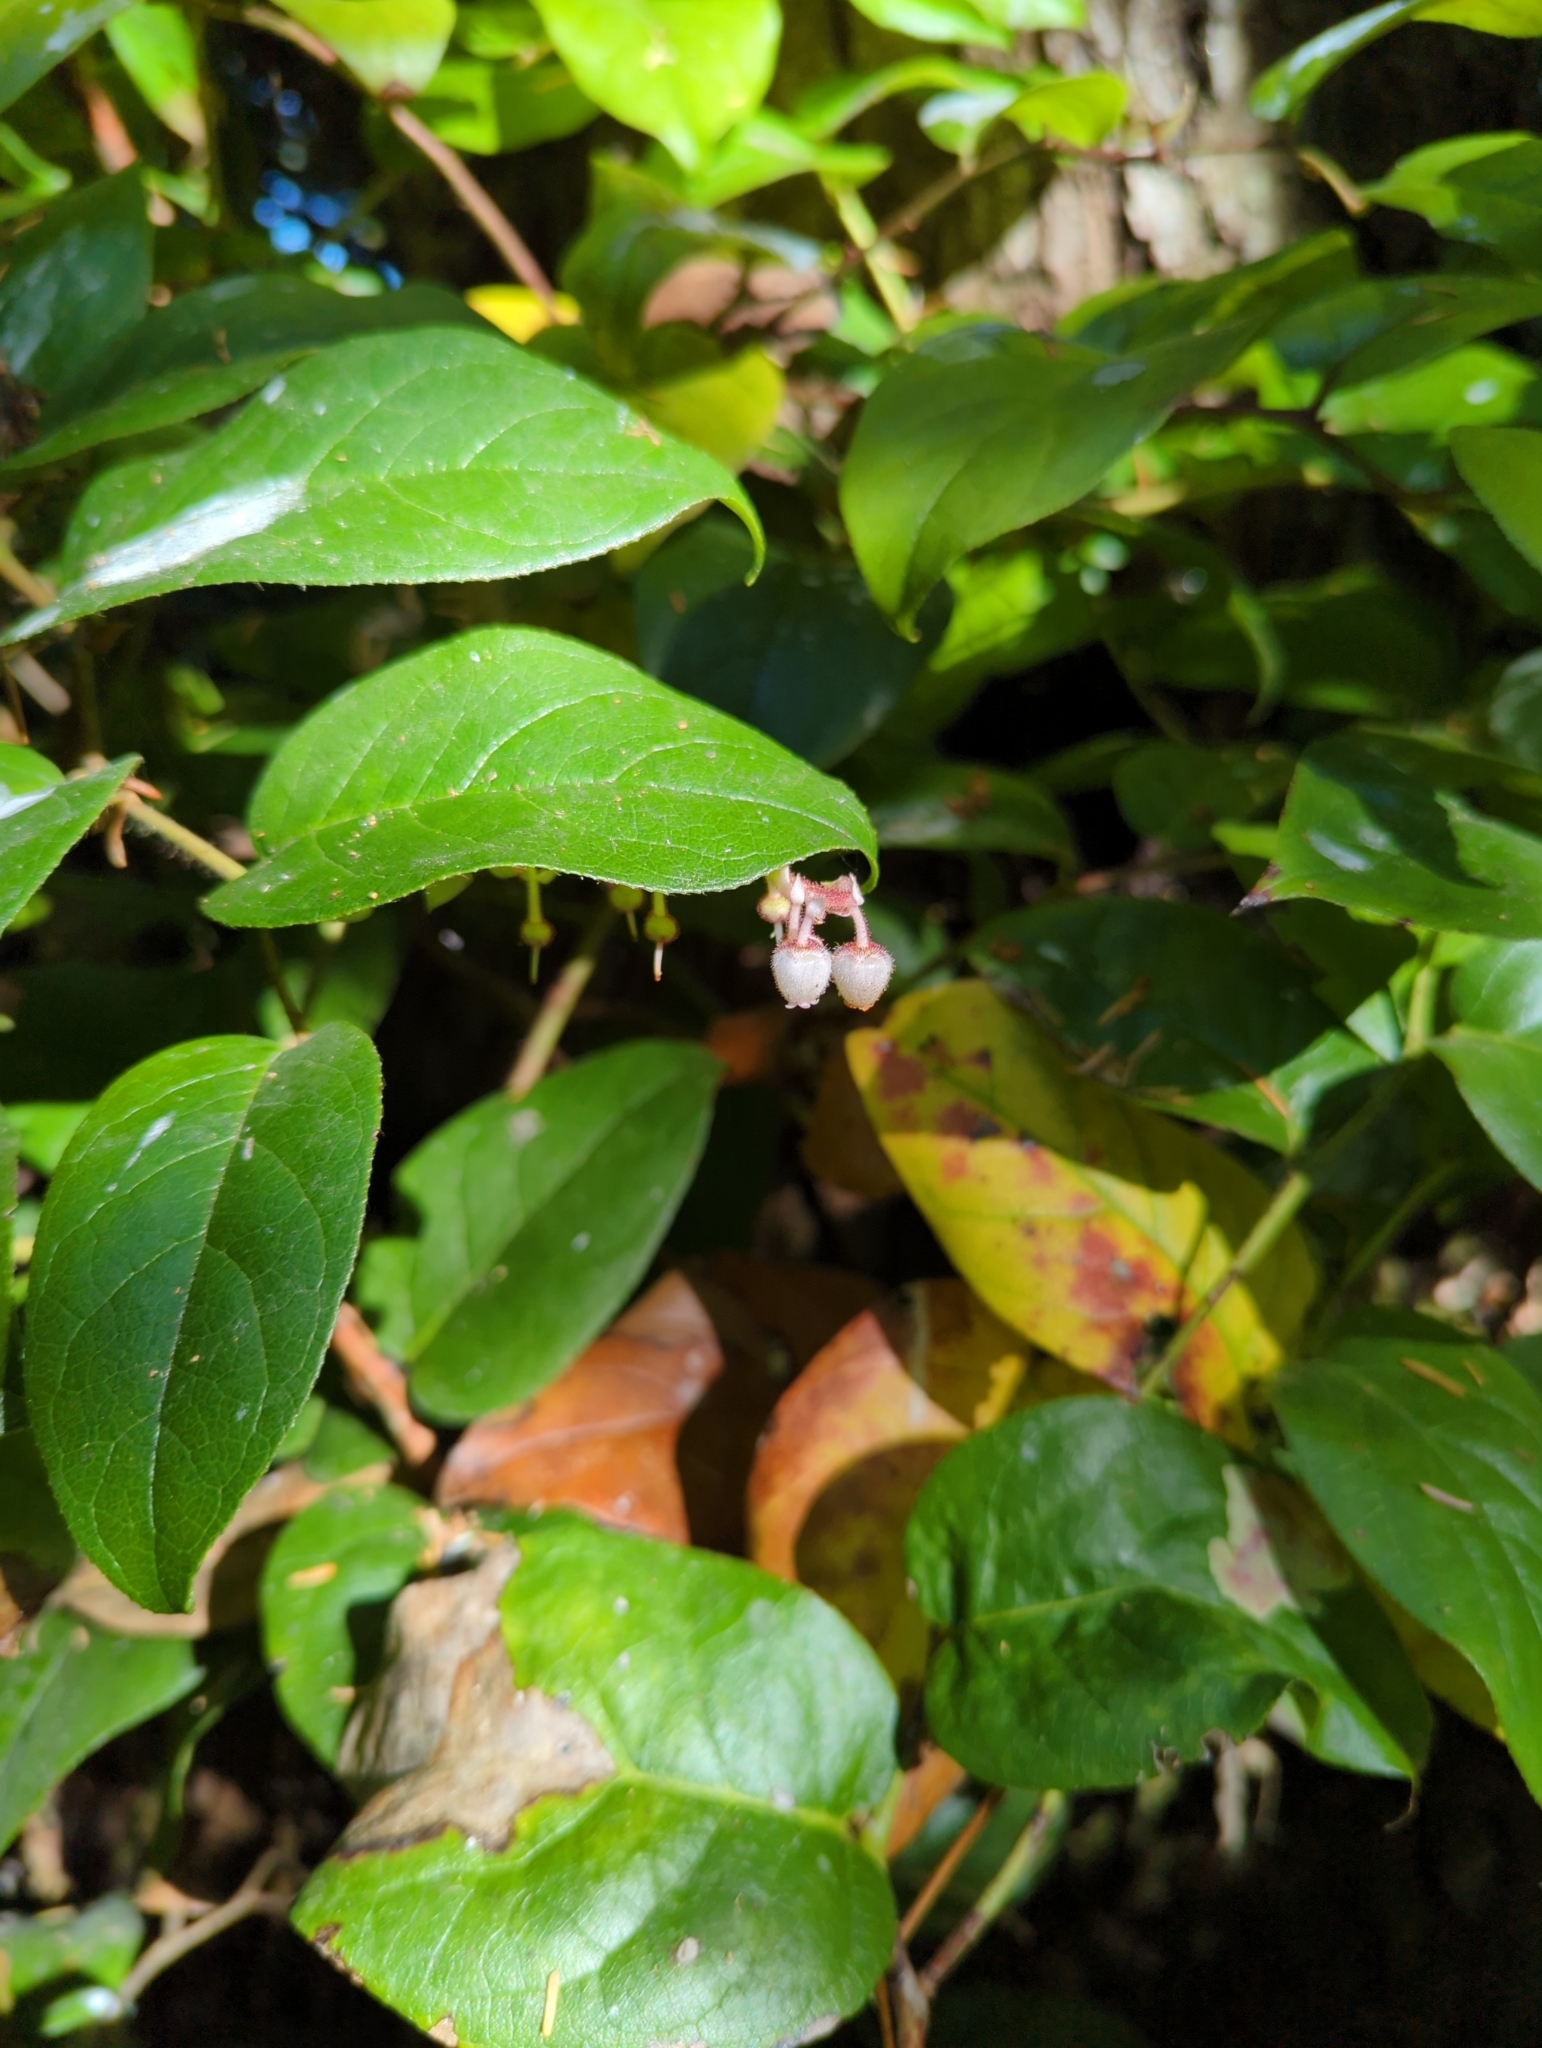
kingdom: Plantae
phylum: Tracheophyta
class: Magnoliopsida
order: Ericales
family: Ericaceae
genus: Gaultheria
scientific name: Gaultheria shallon
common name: Shallon
